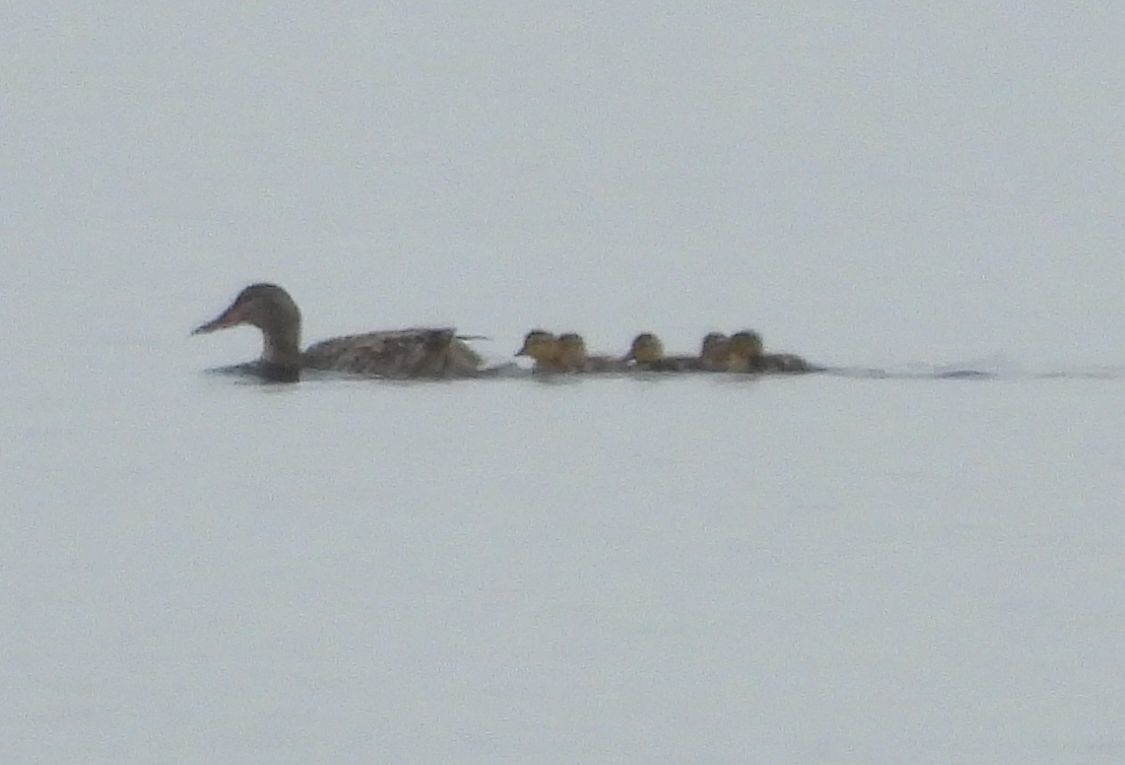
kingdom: Animalia
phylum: Chordata
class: Aves
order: Anseriformes
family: Anatidae
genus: Anas
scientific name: Anas platyrhynchos
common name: Mallard
